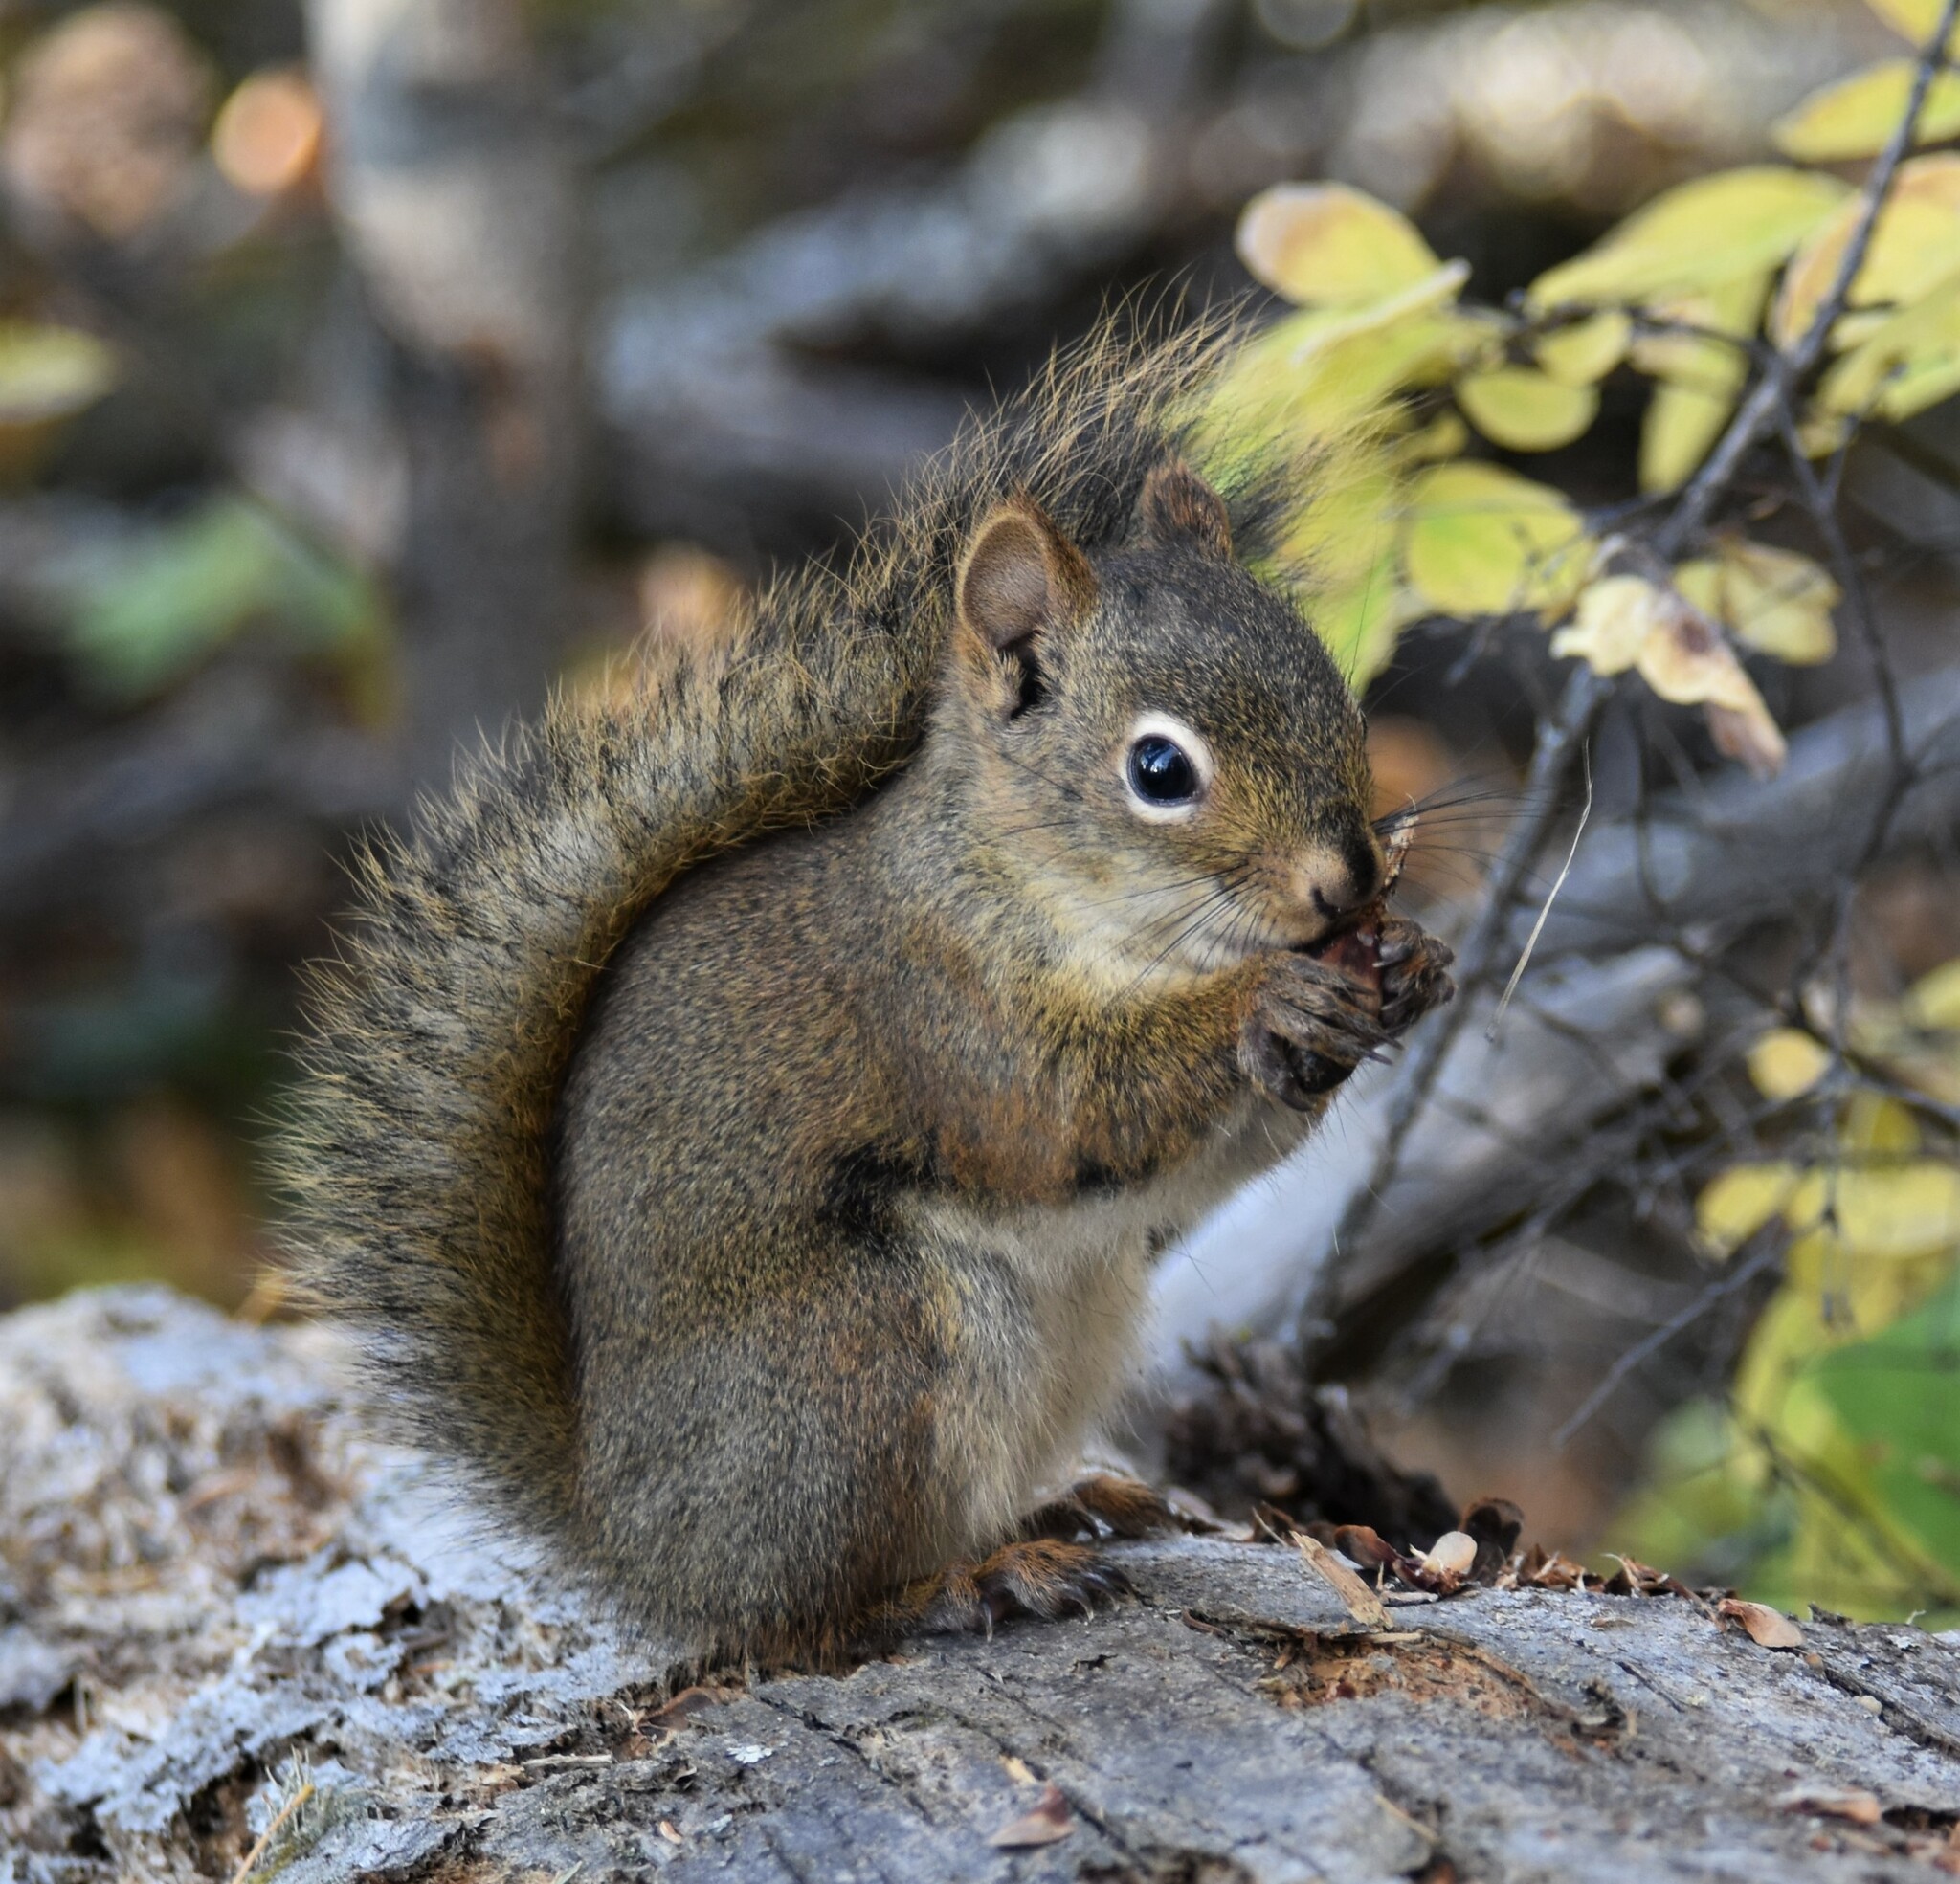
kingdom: Animalia
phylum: Chordata
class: Mammalia
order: Rodentia
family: Sciuridae
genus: Tamiasciurus
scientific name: Tamiasciurus hudsonicus
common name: Red squirrel
